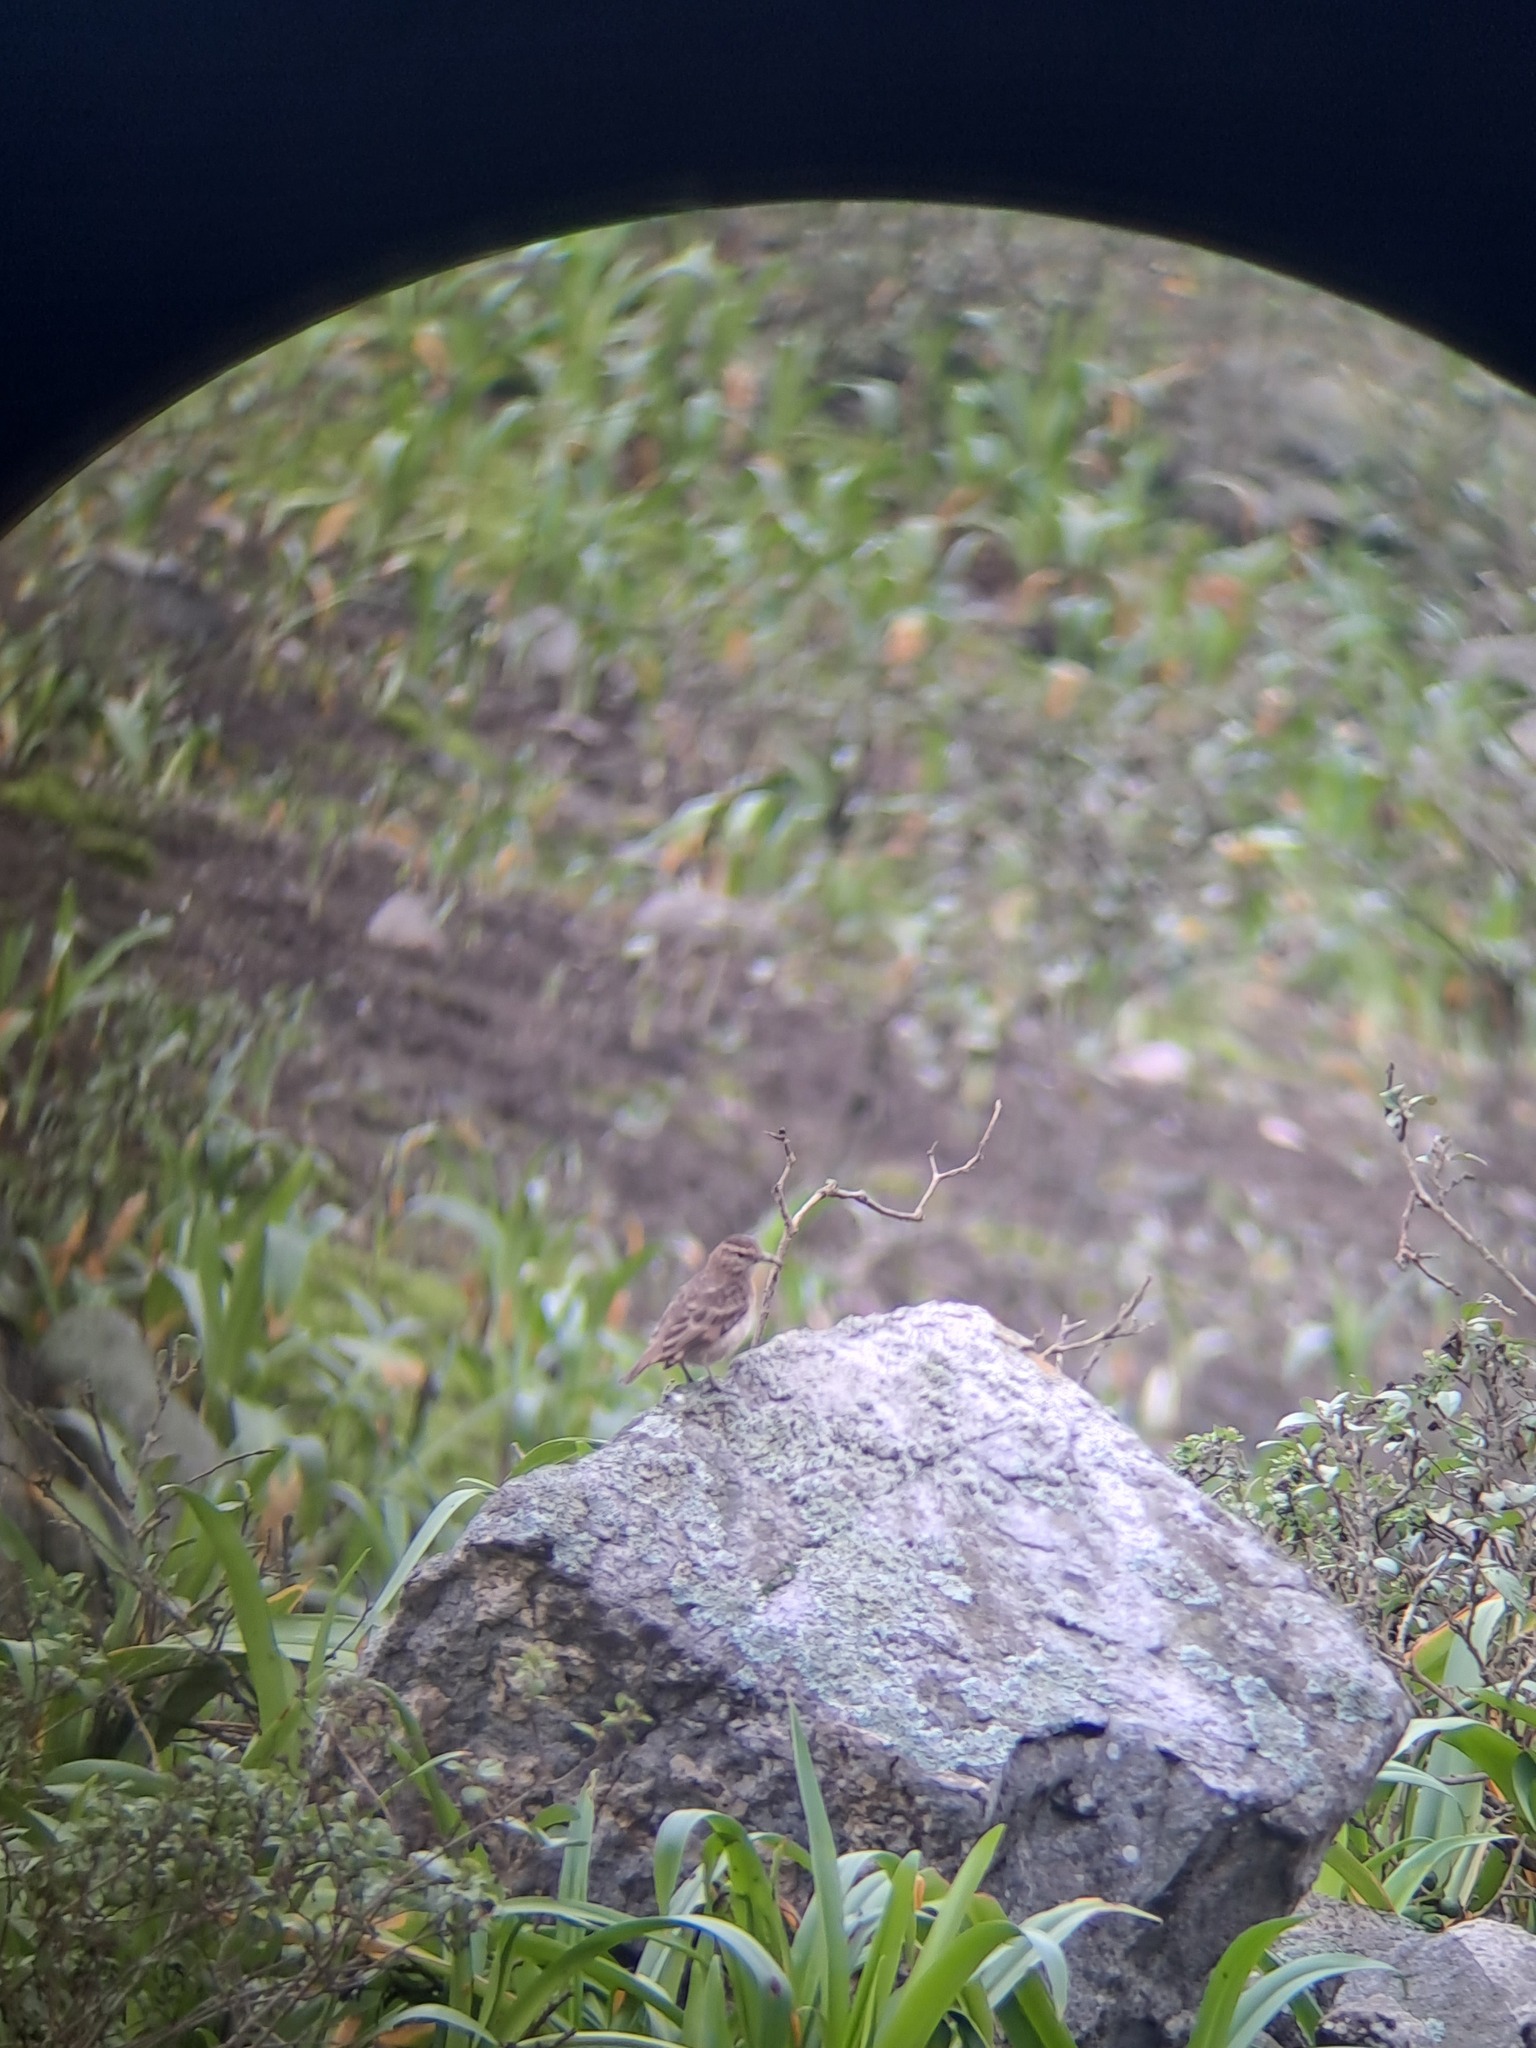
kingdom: Animalia
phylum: Chordata
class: Aves
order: Passeriformes
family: Furnariidae
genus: Geositta
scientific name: Geositta crassirostris
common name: Thick-billed miner
